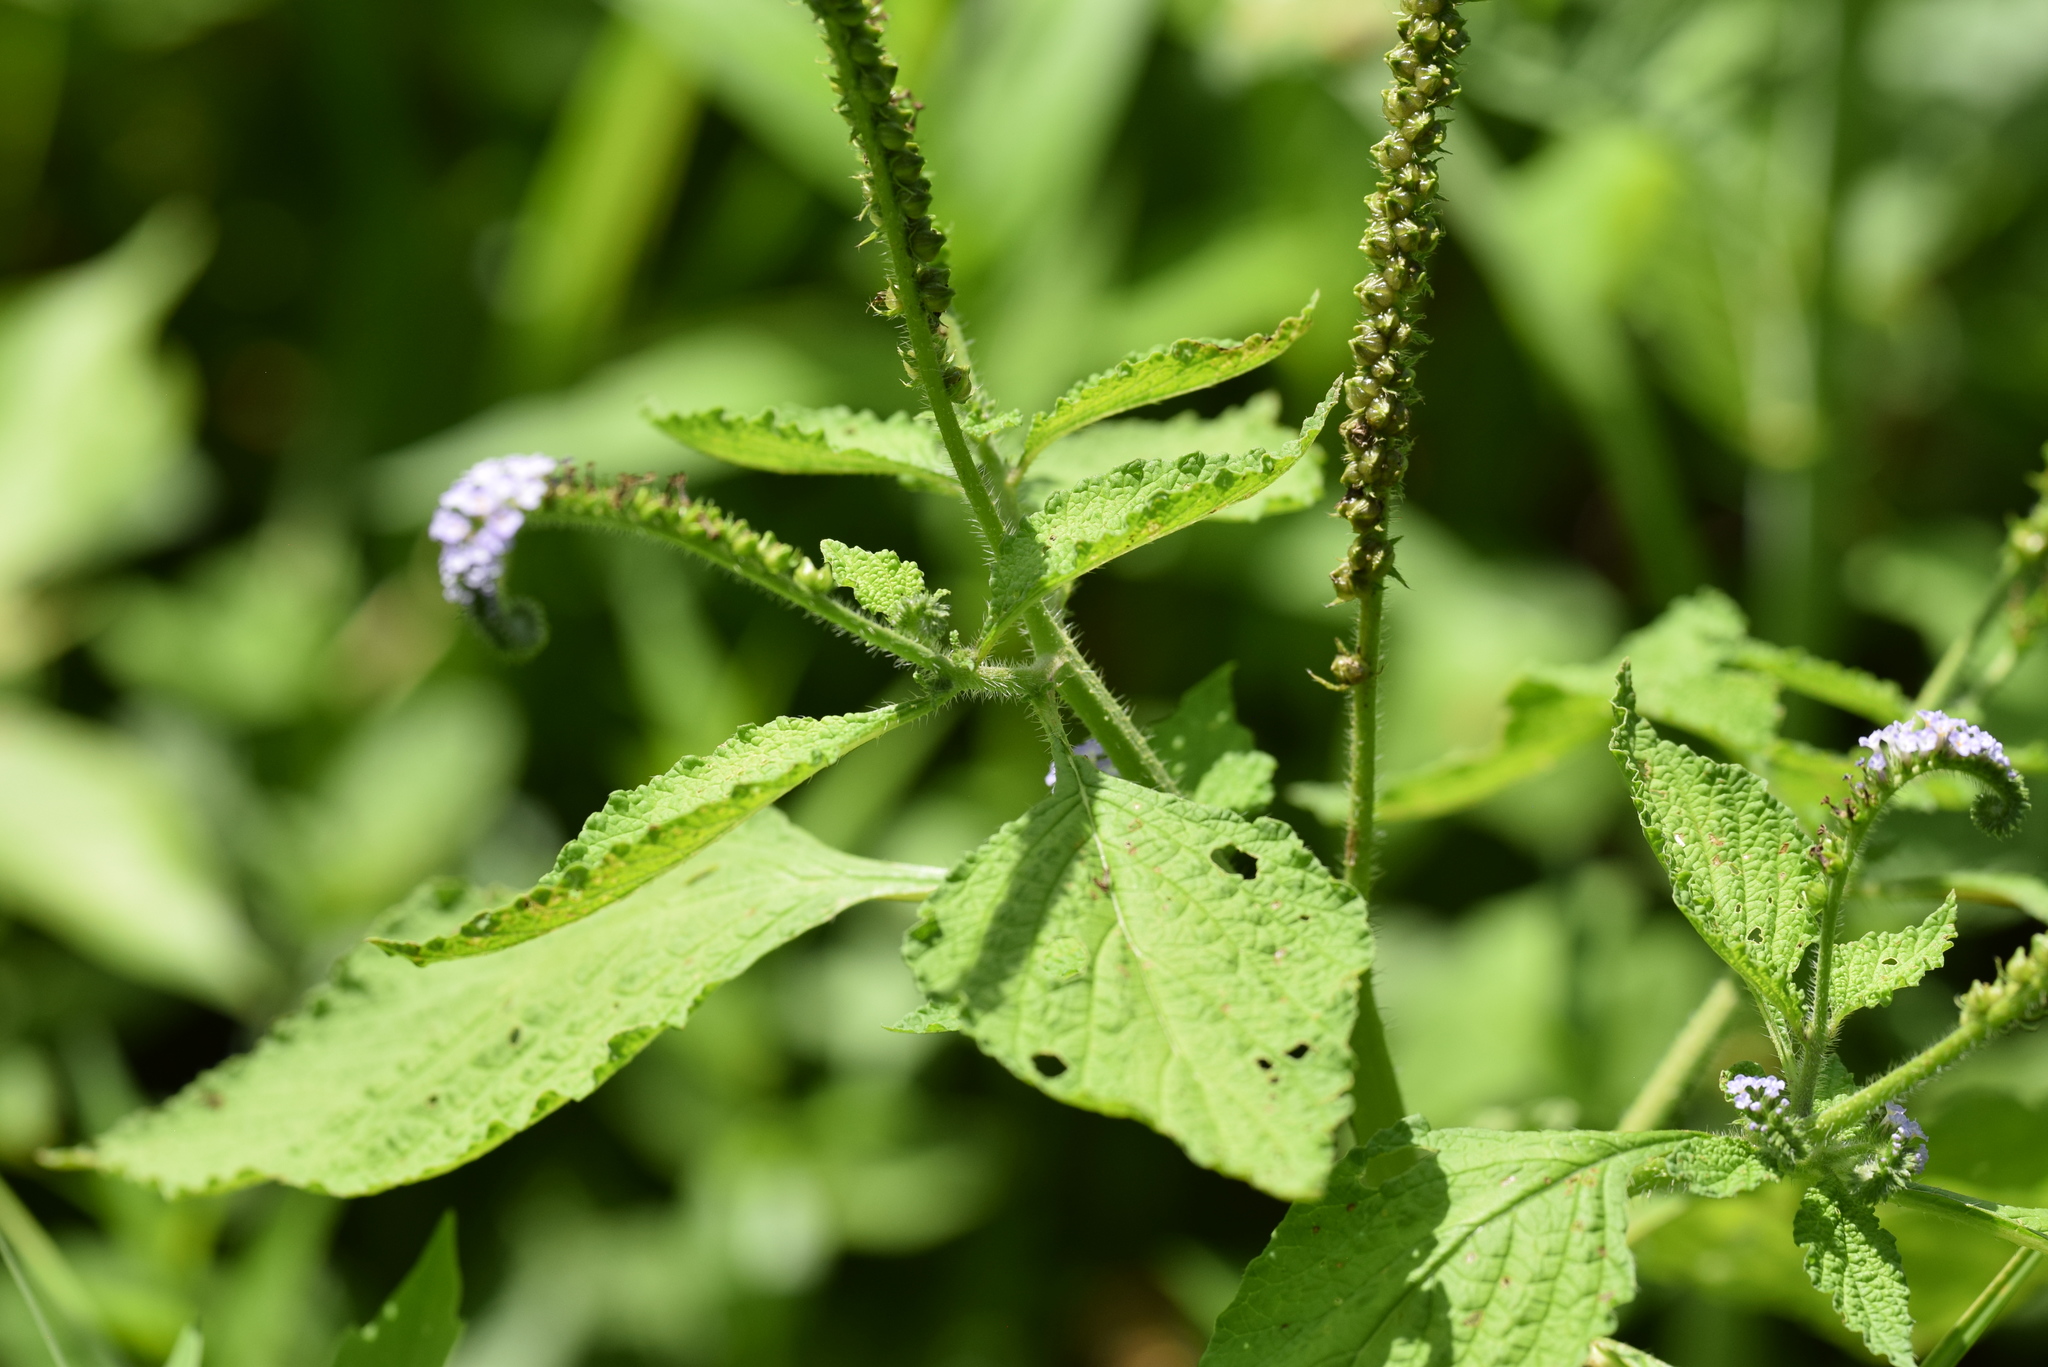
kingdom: Plantae
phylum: Tracheophyta
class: Magnoliopsida
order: Boraginales
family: Heliotropiaceae
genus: Heliotropium
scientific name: Heliotropium indicum
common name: Indian heliotrope
